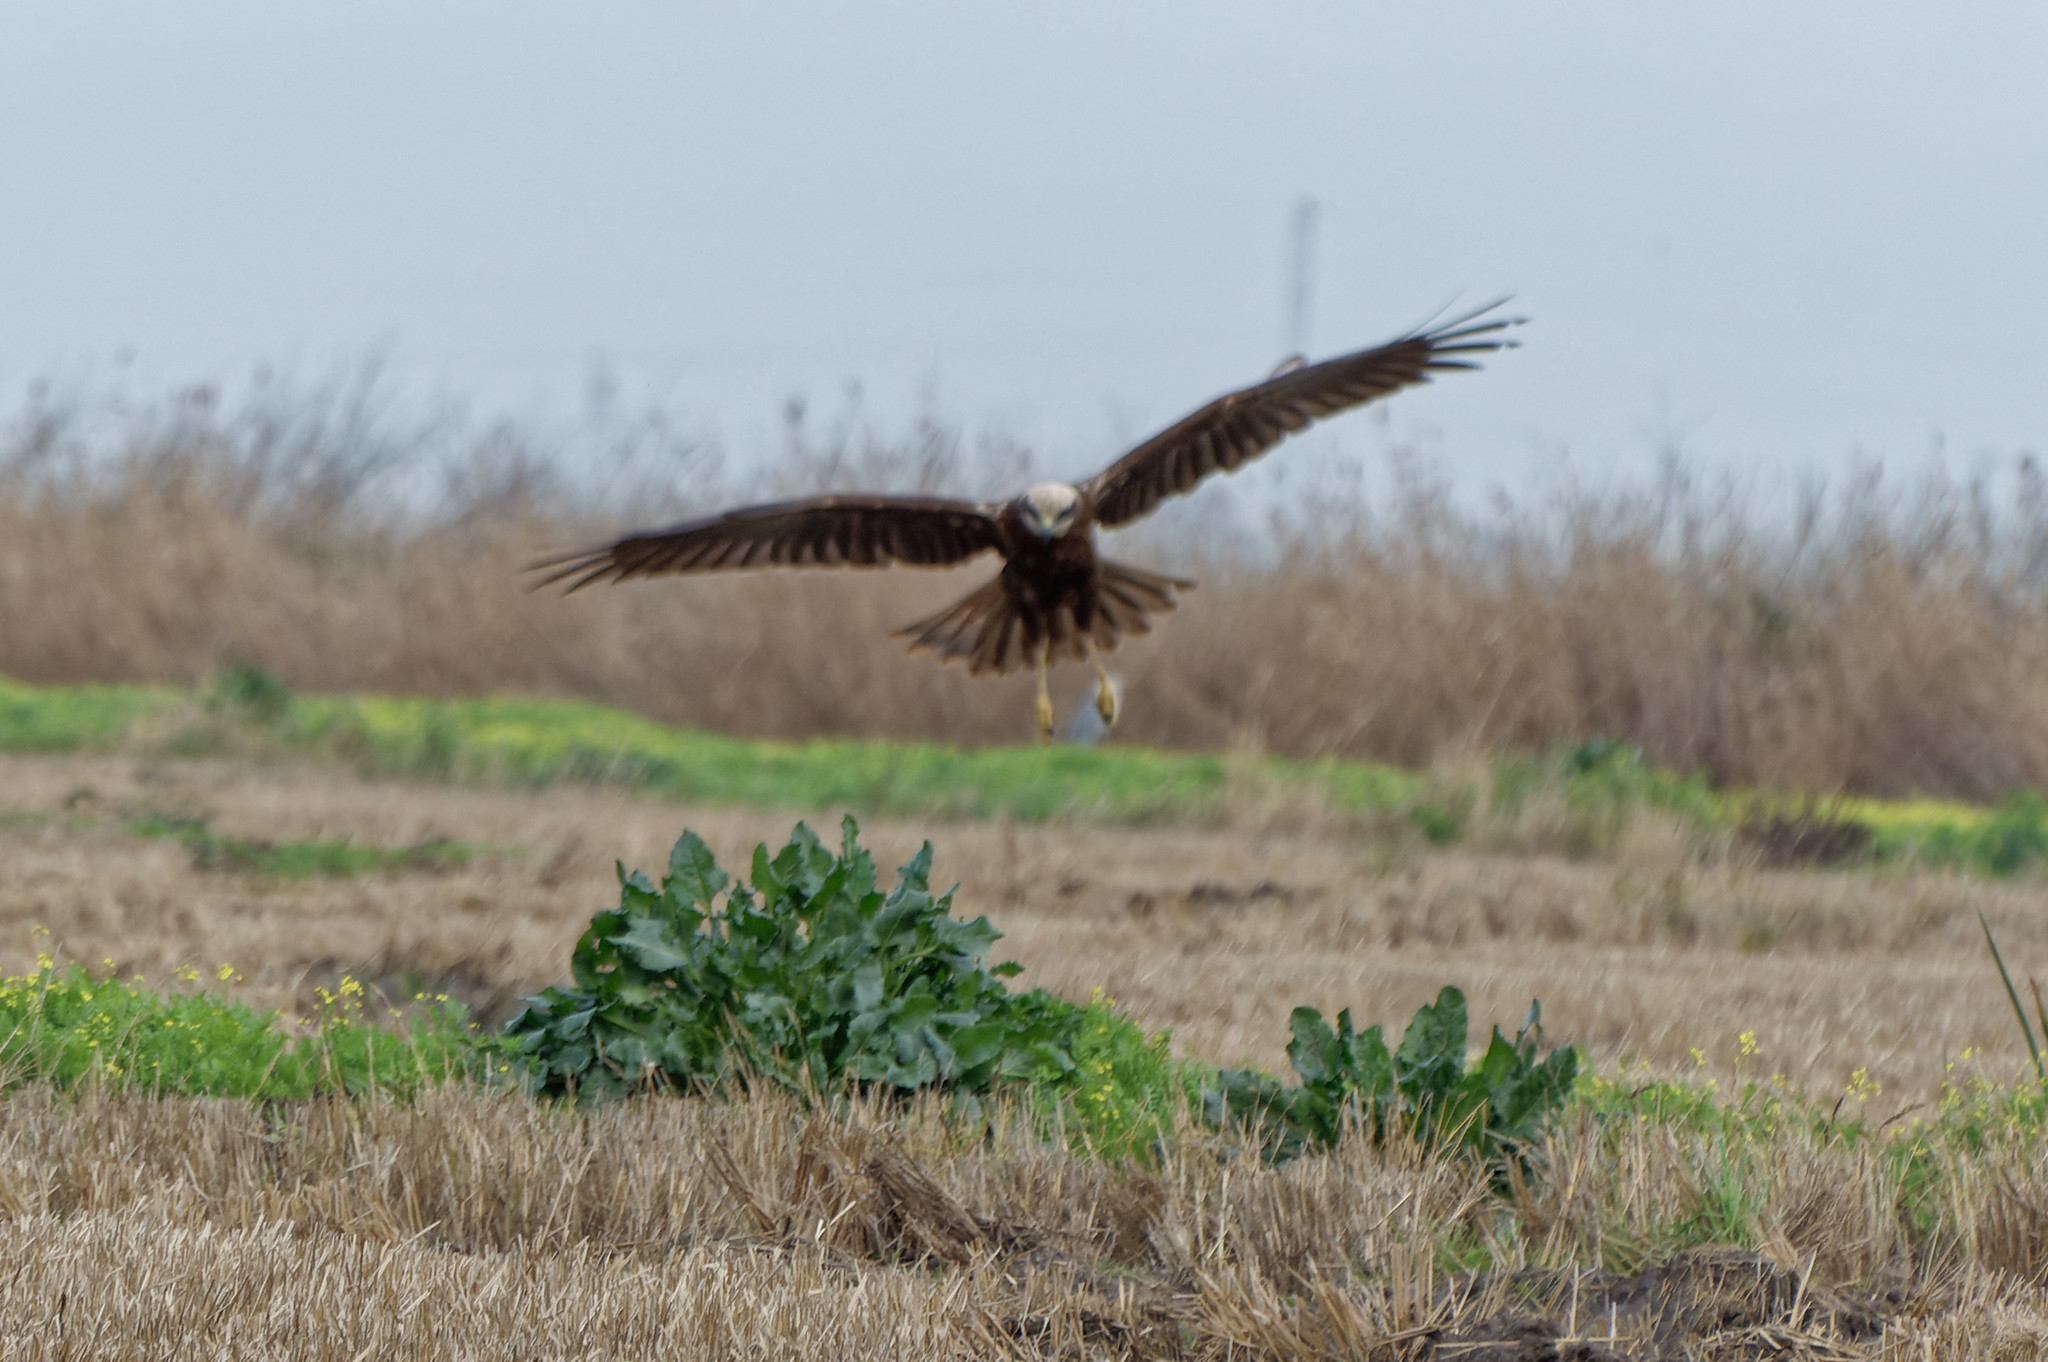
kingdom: Animalia
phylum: Chordata
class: Aves
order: Accipitriformes
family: Accipitridae
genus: Circus
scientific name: Circus aeruginosus
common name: Western marsh harrier
